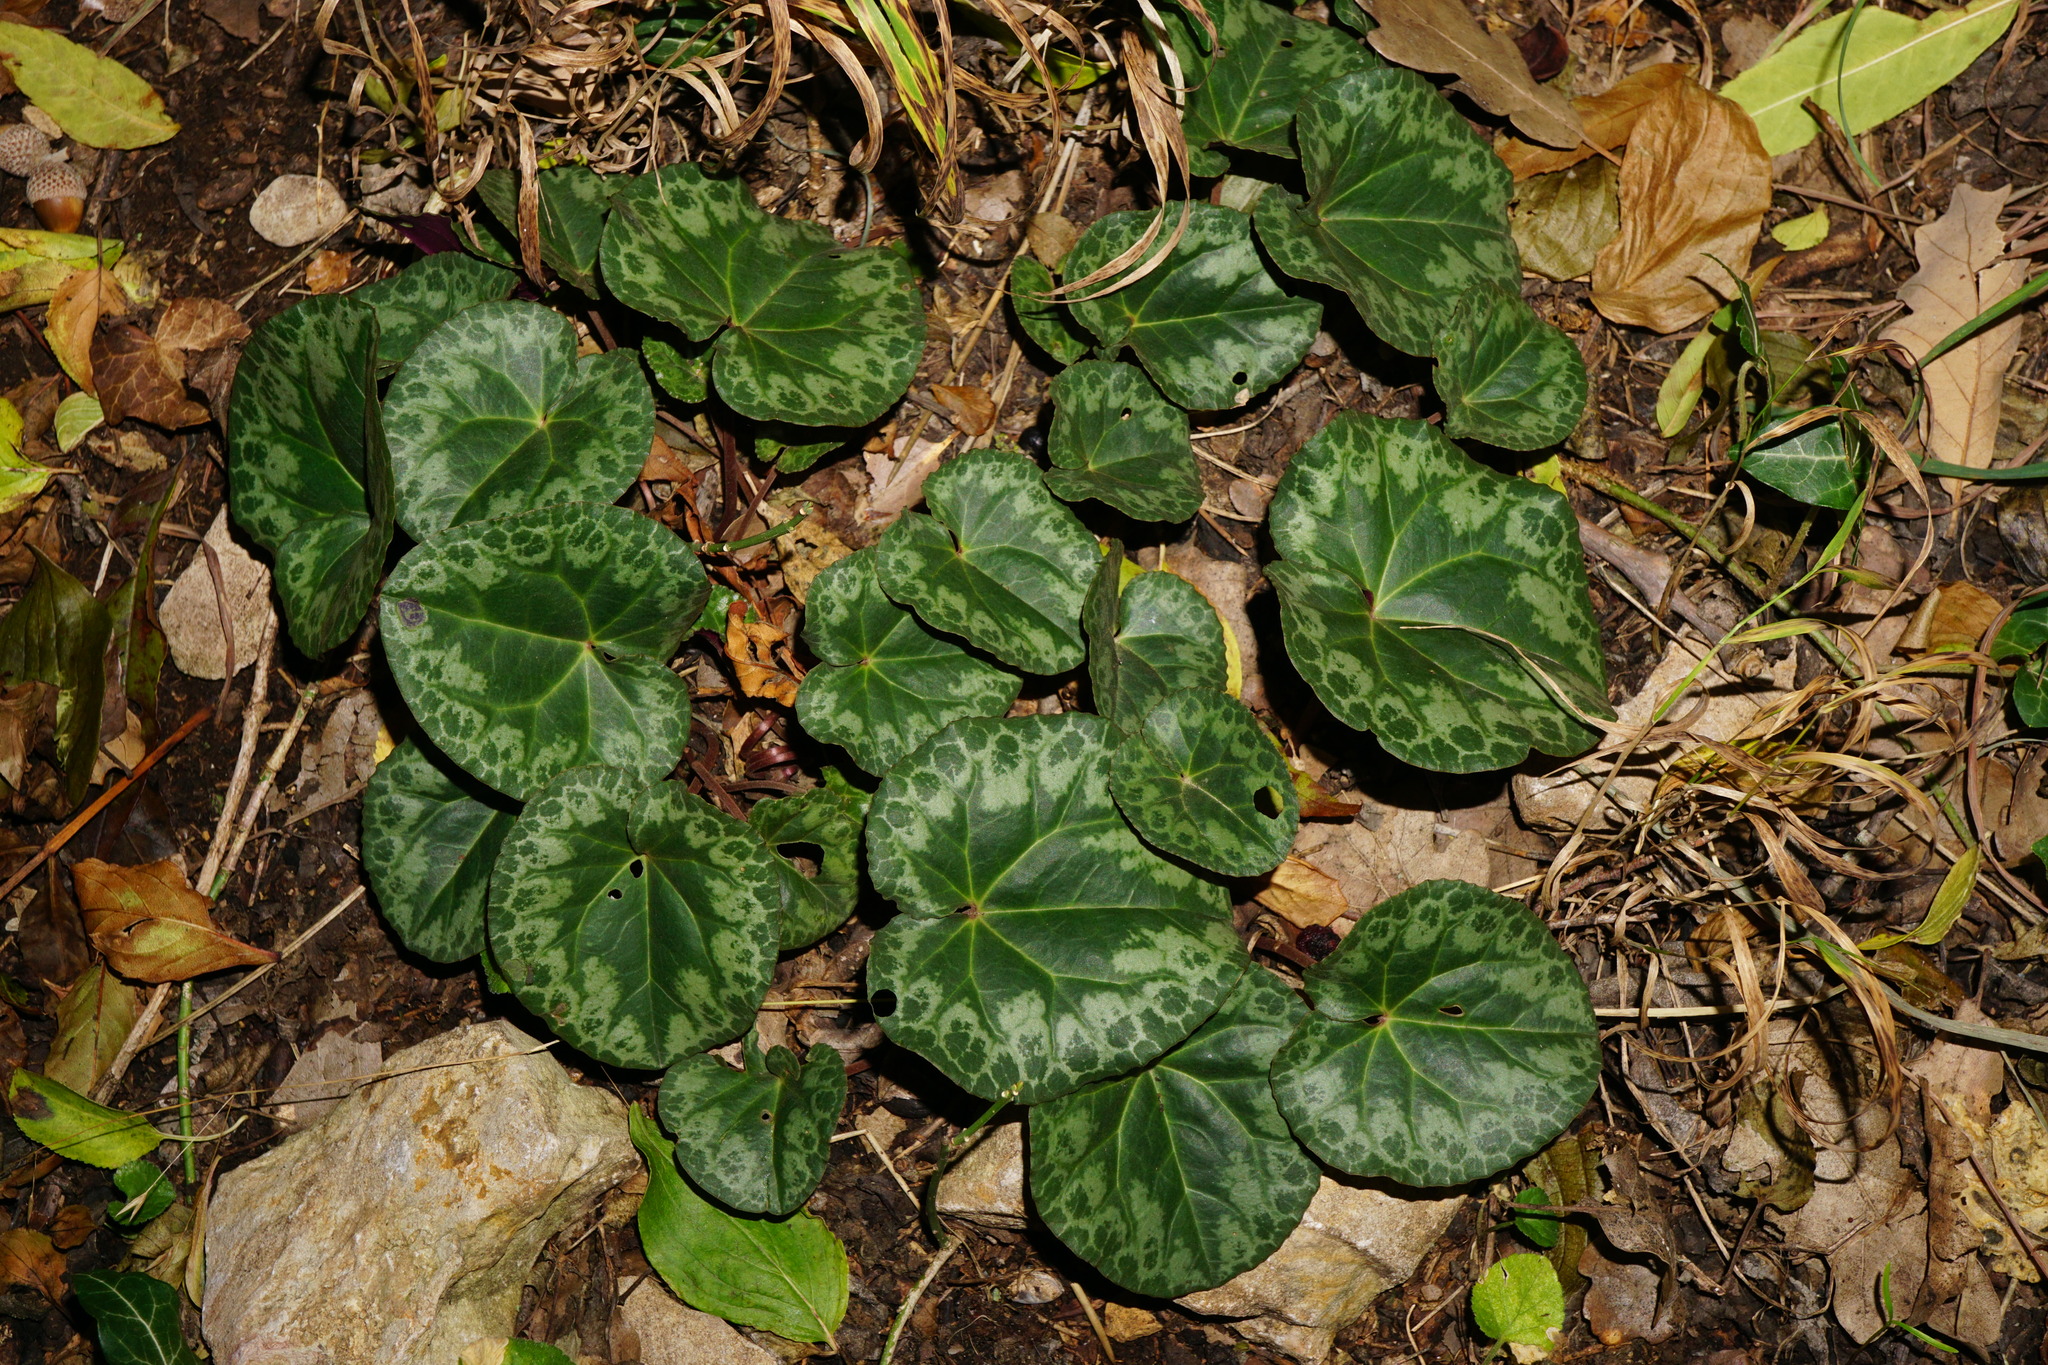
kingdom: Plantae
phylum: Tracheophyta
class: Magnoliopsida
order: Ericales
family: Primulaceae
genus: Cyclamen
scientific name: Cyclamen purpurascens
